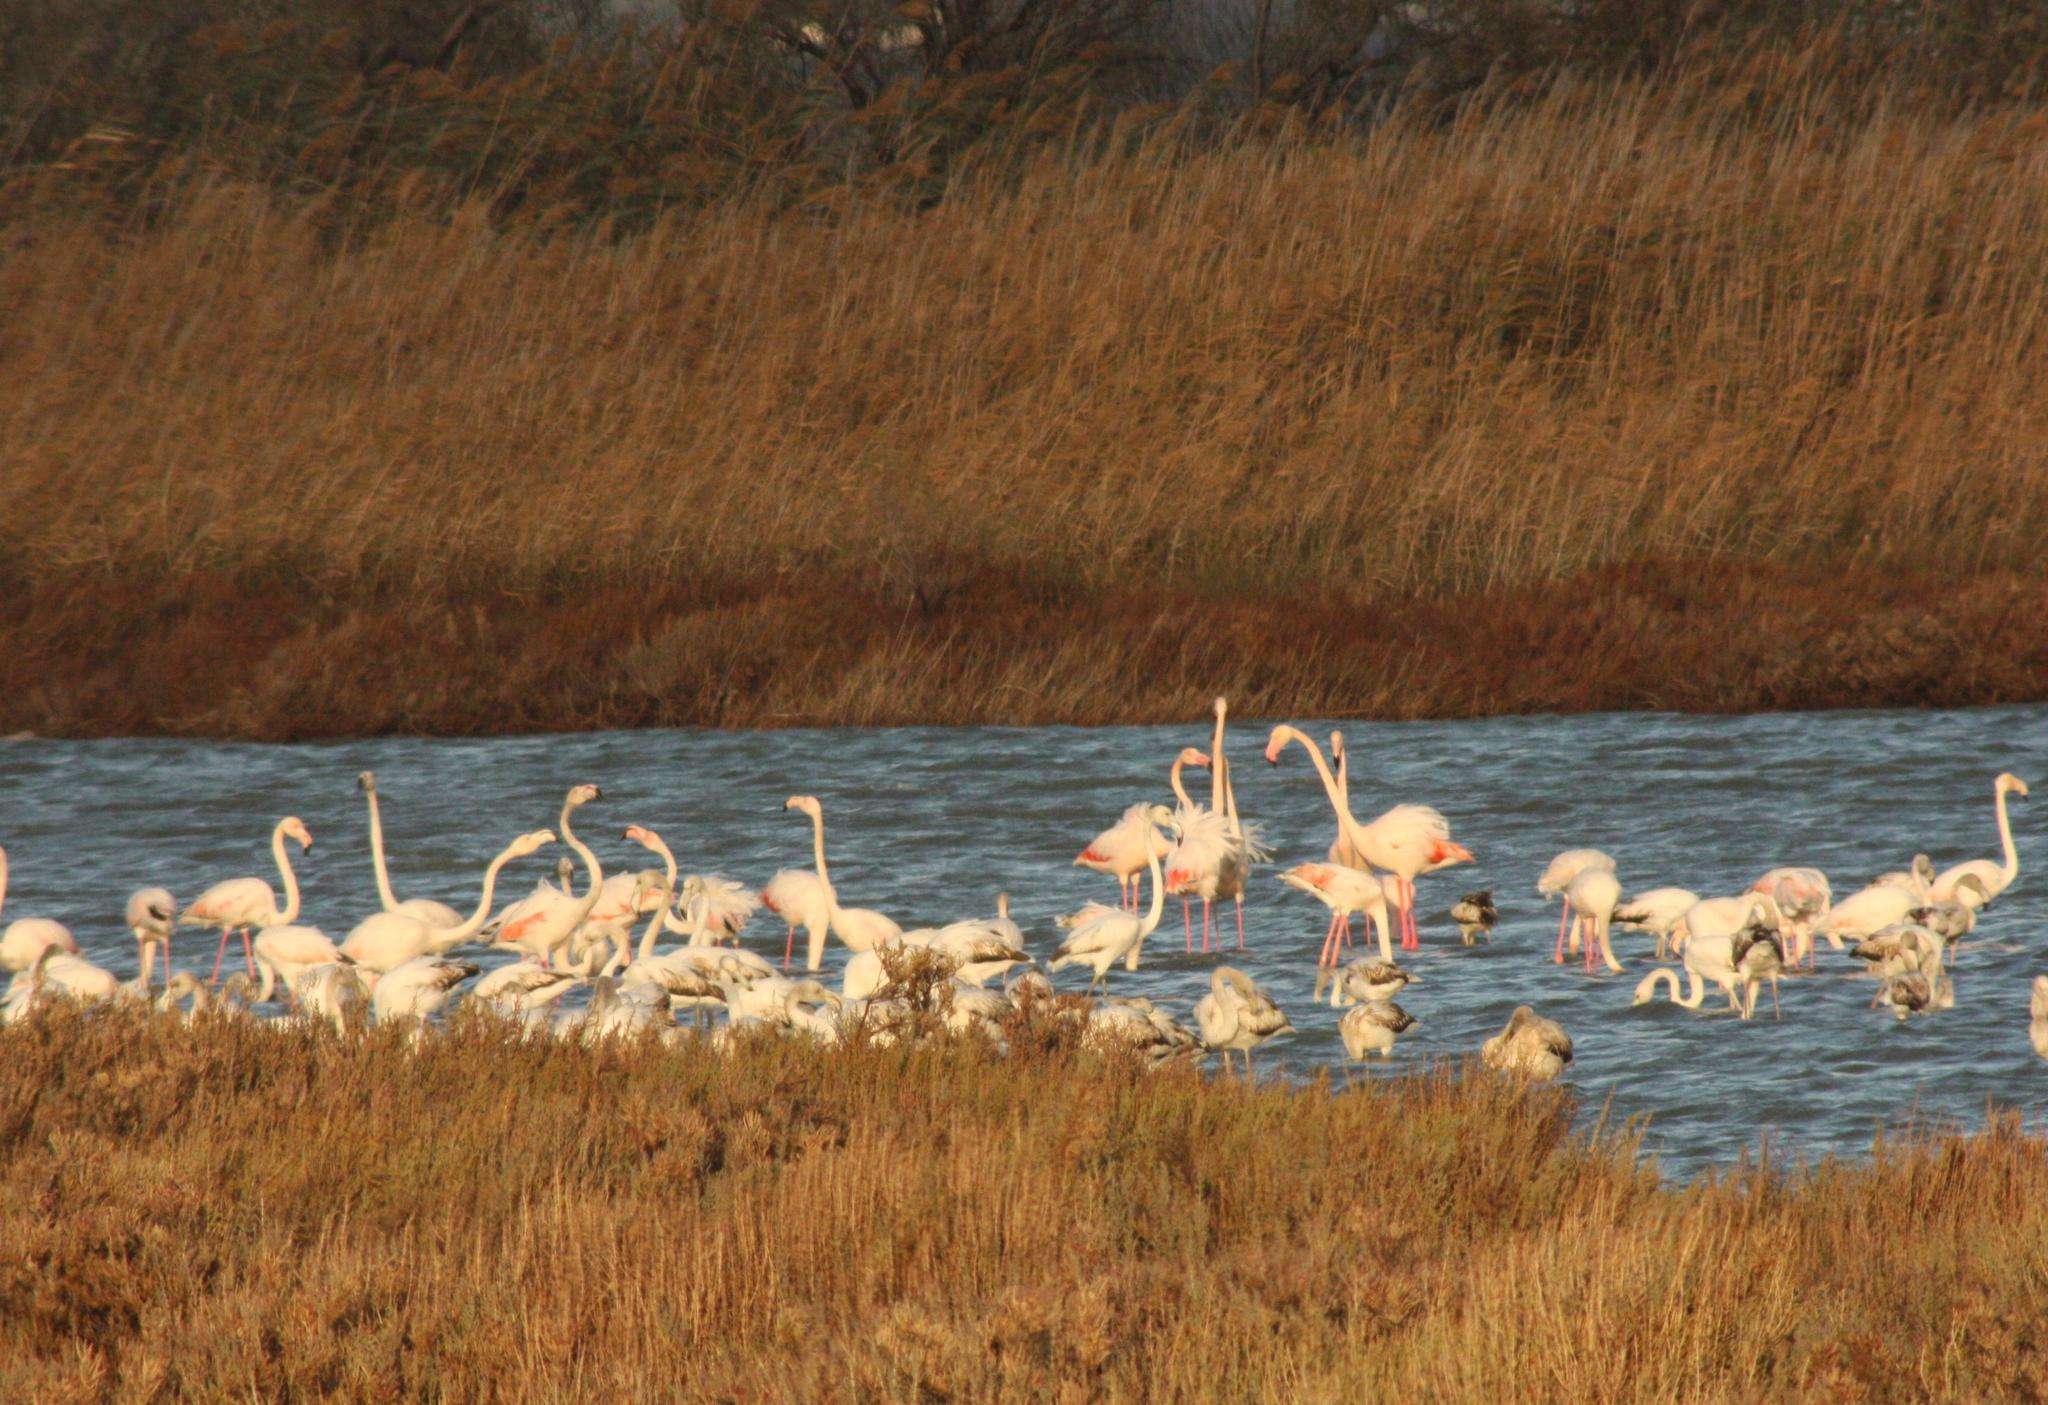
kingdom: Animalia
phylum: Chordata
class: Aves
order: Phoenicopteriformes
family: Phoenicopteridae
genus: Phoenicopterus
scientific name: Phoenicopterus roseus
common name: Greater flamingo
